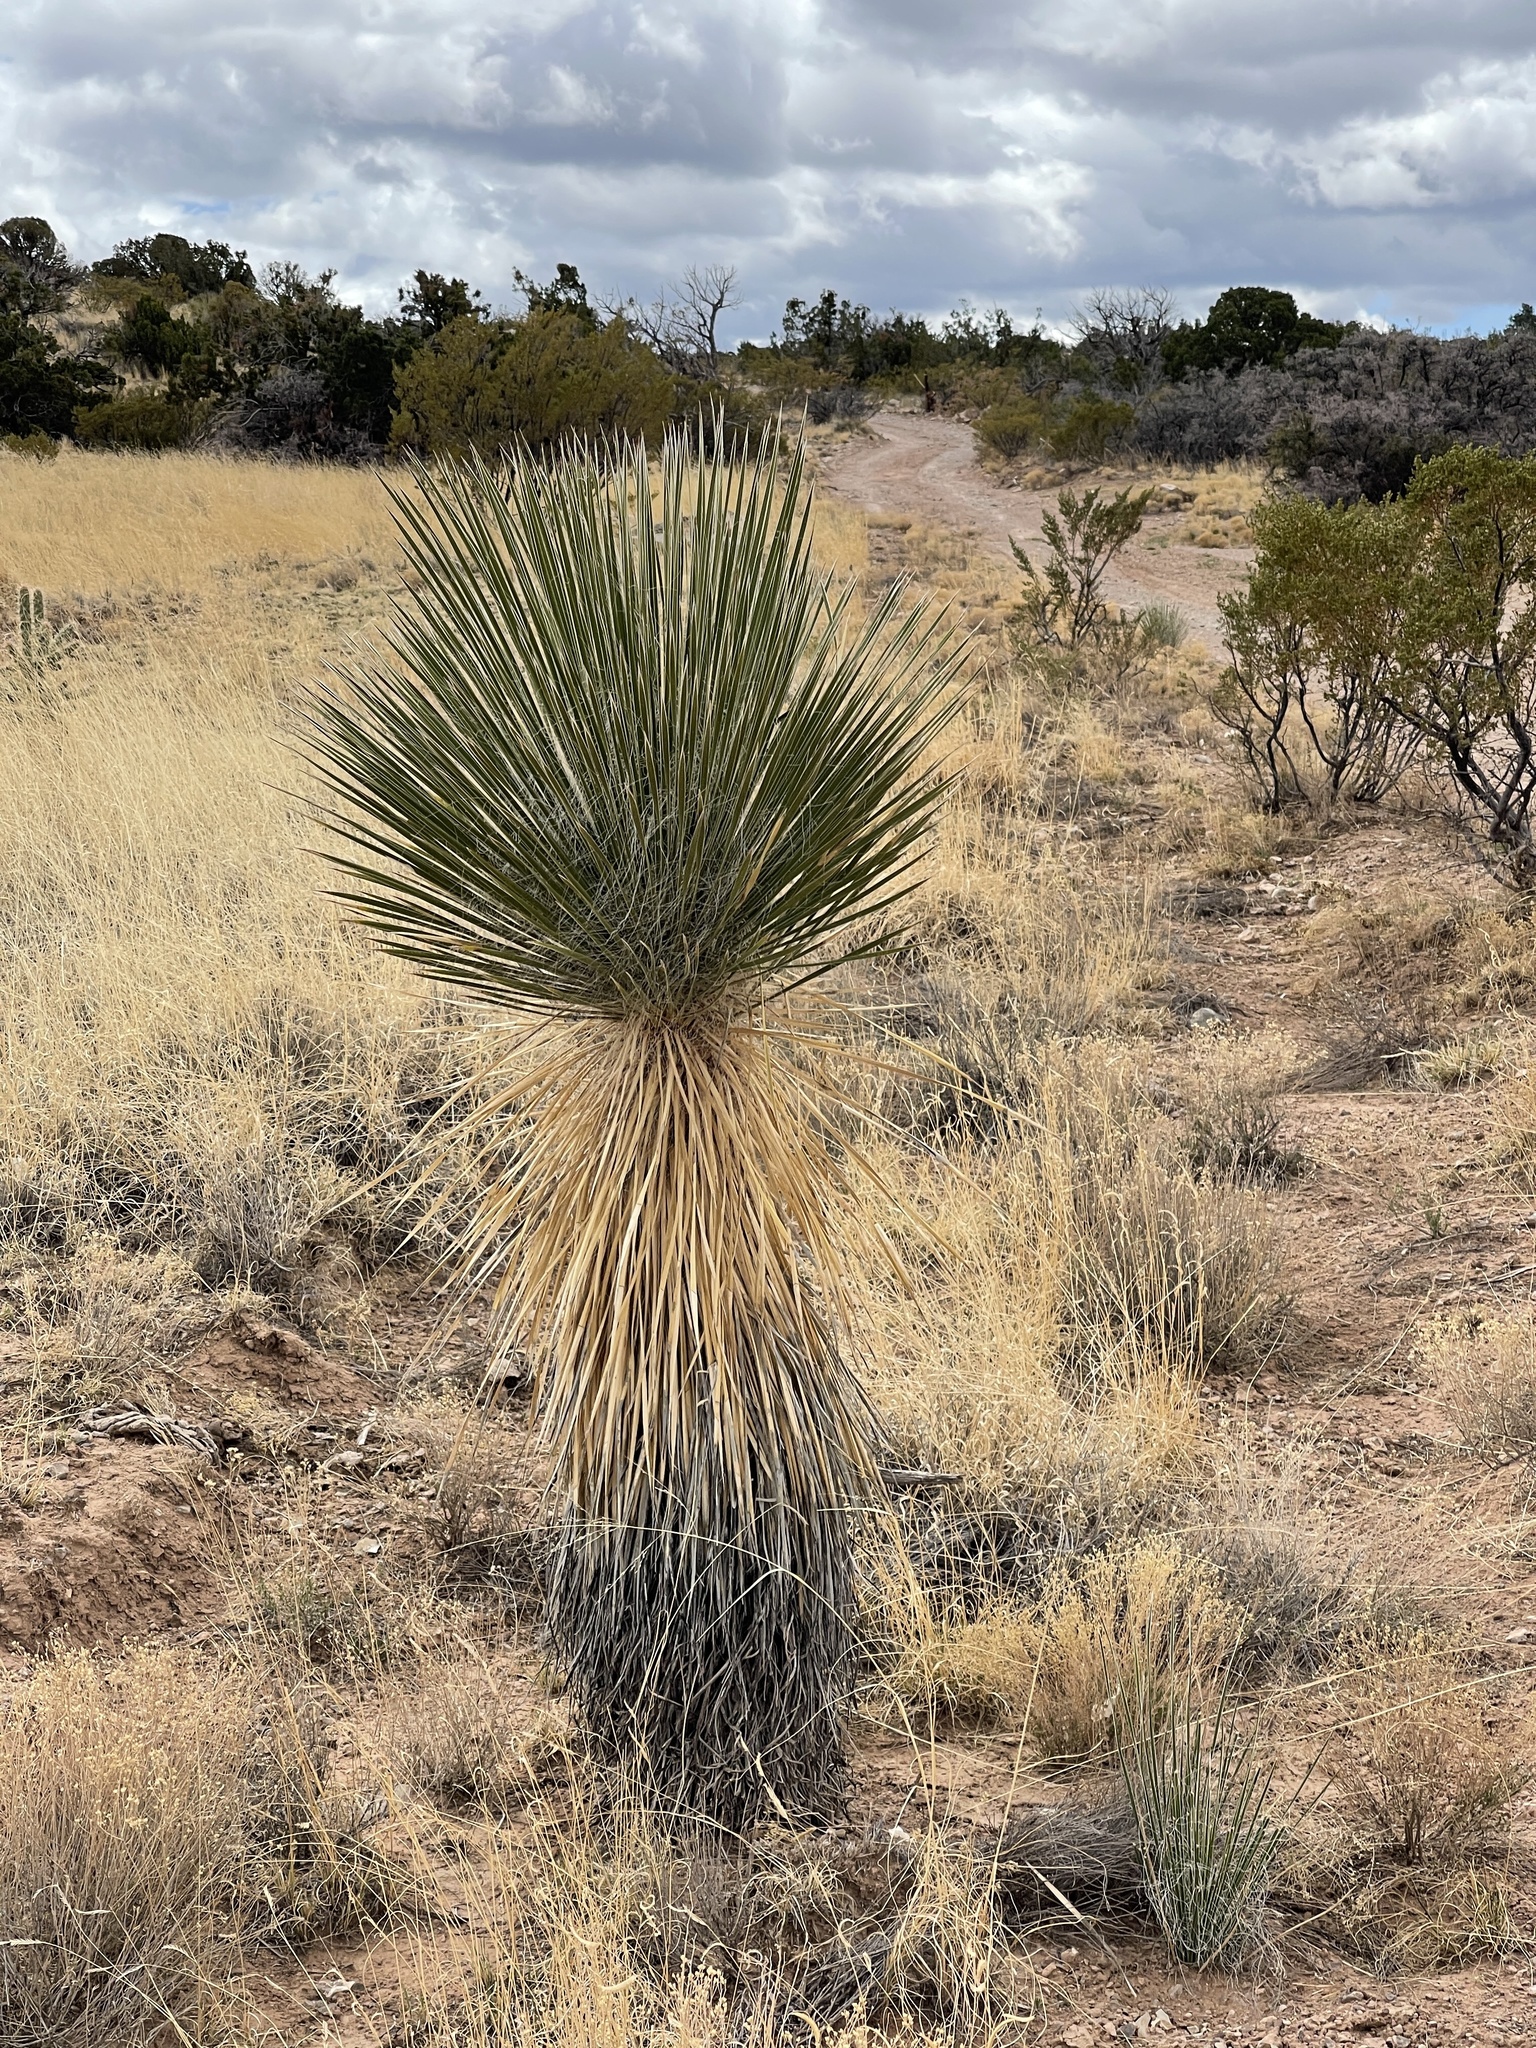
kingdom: Plantae
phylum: Tracheophyta
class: Liliopsida
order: Asparagales
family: Asparagaceae
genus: Yucca
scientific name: Yucca elata
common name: Palmella
